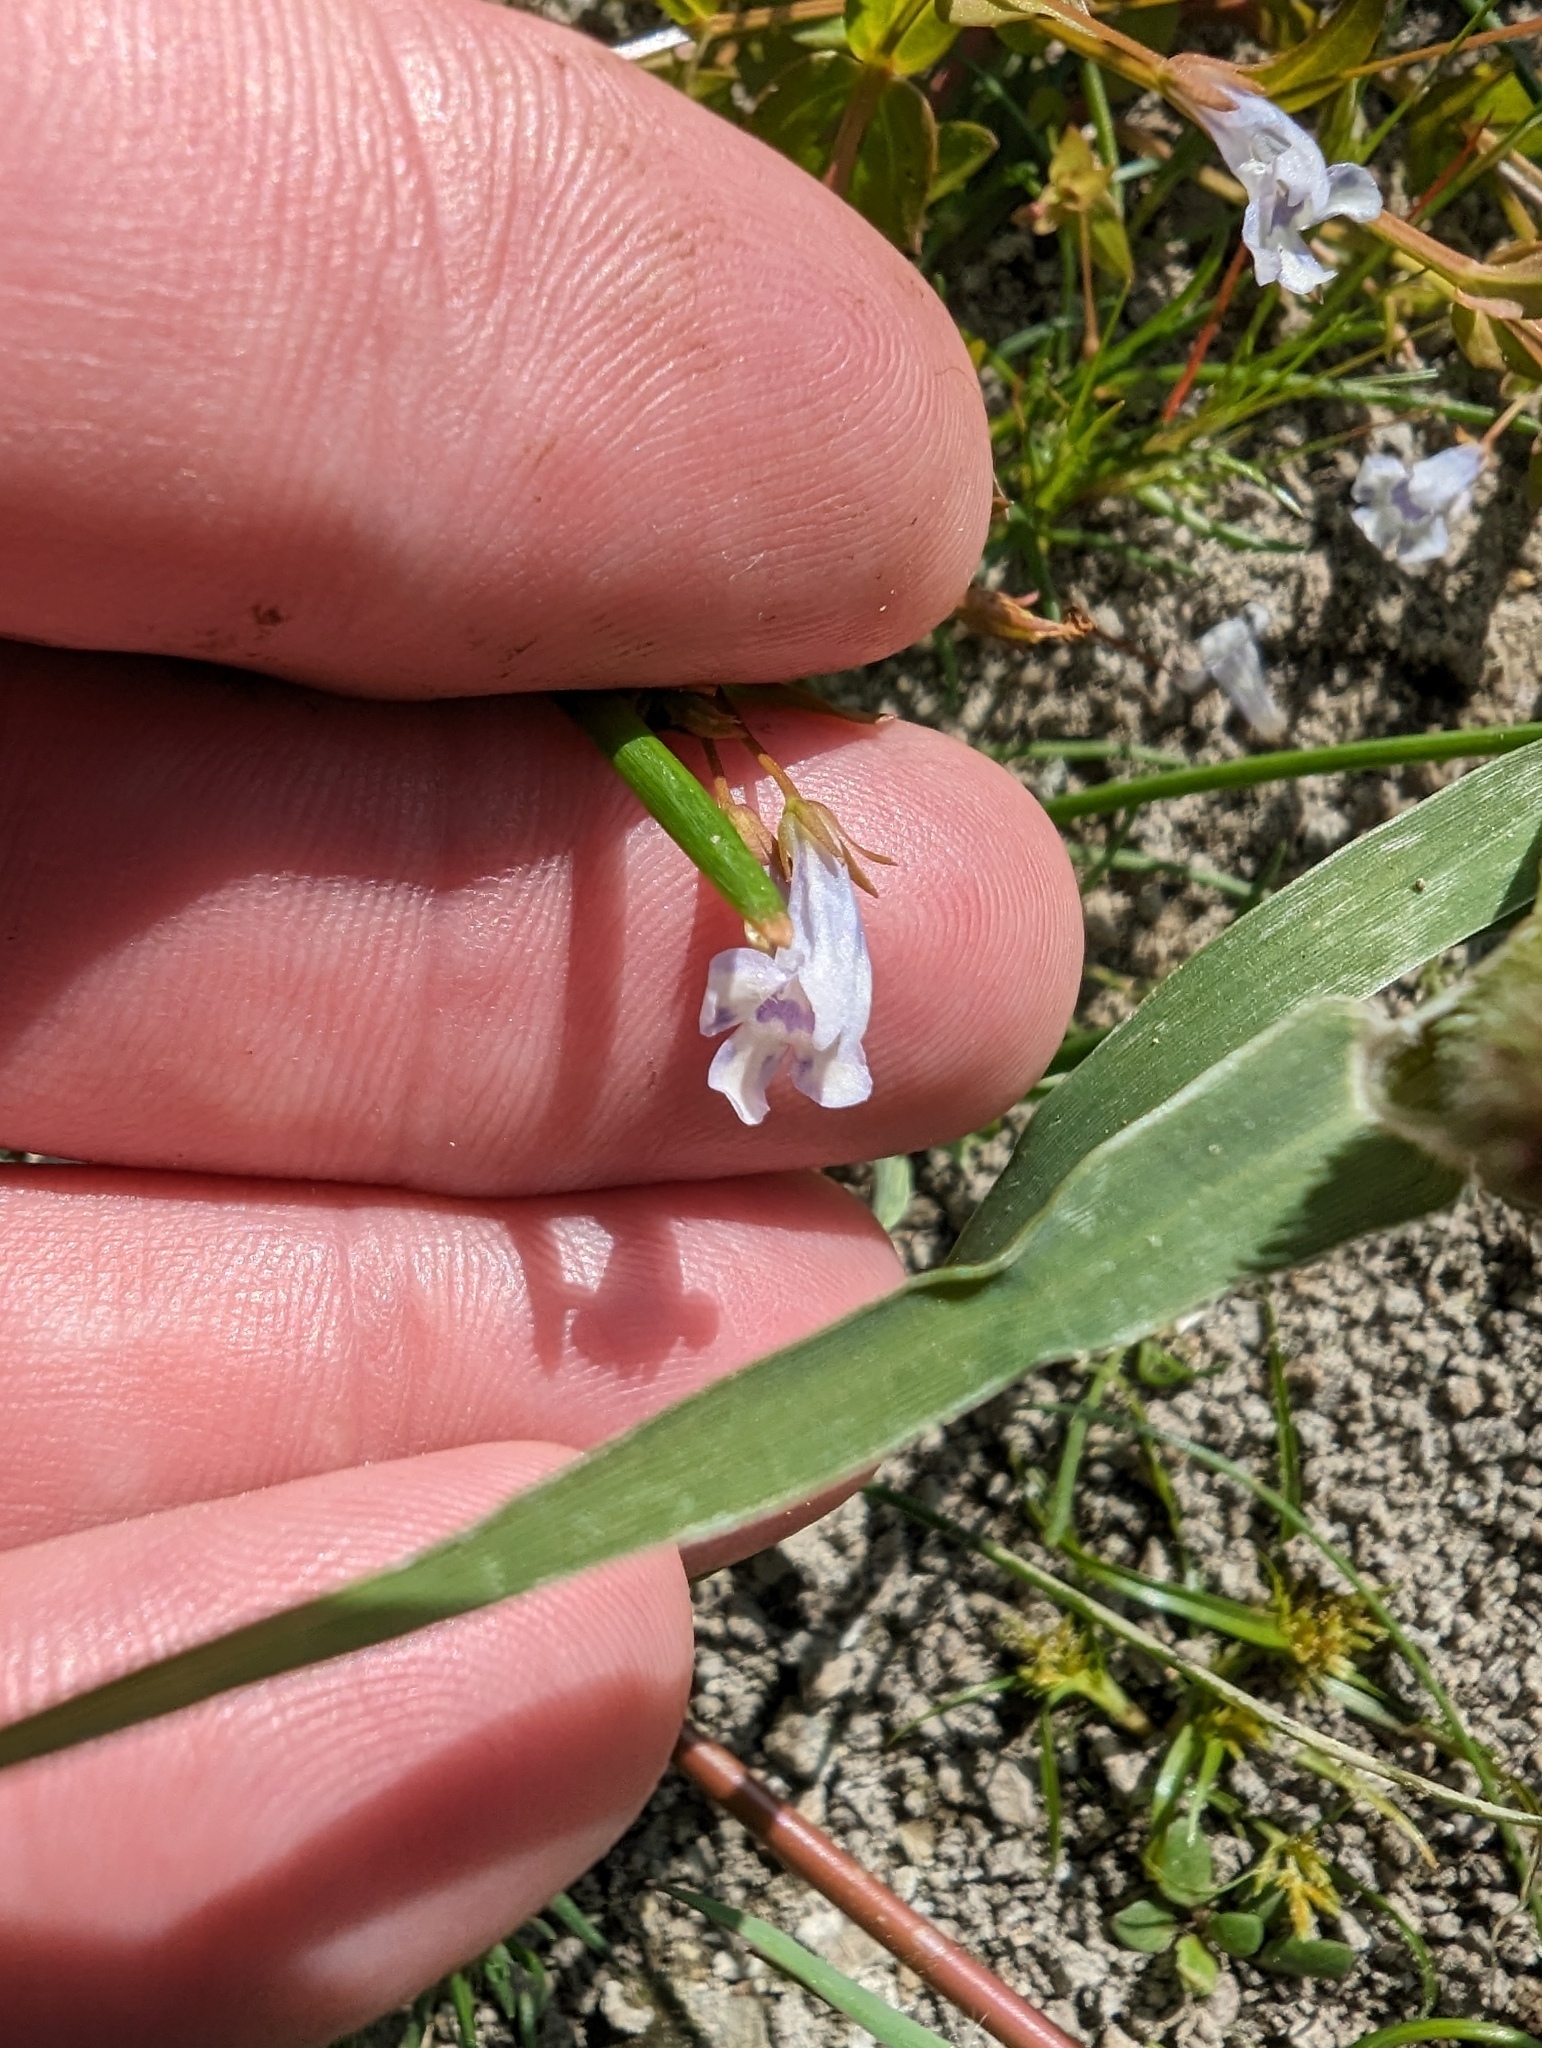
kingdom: Plantae
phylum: Tracheophyta
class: Magnoliopsida
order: Lamiales
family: Linderniaceae
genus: Lindernia
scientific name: Lindernia dubia
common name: Annual false pimpernel
